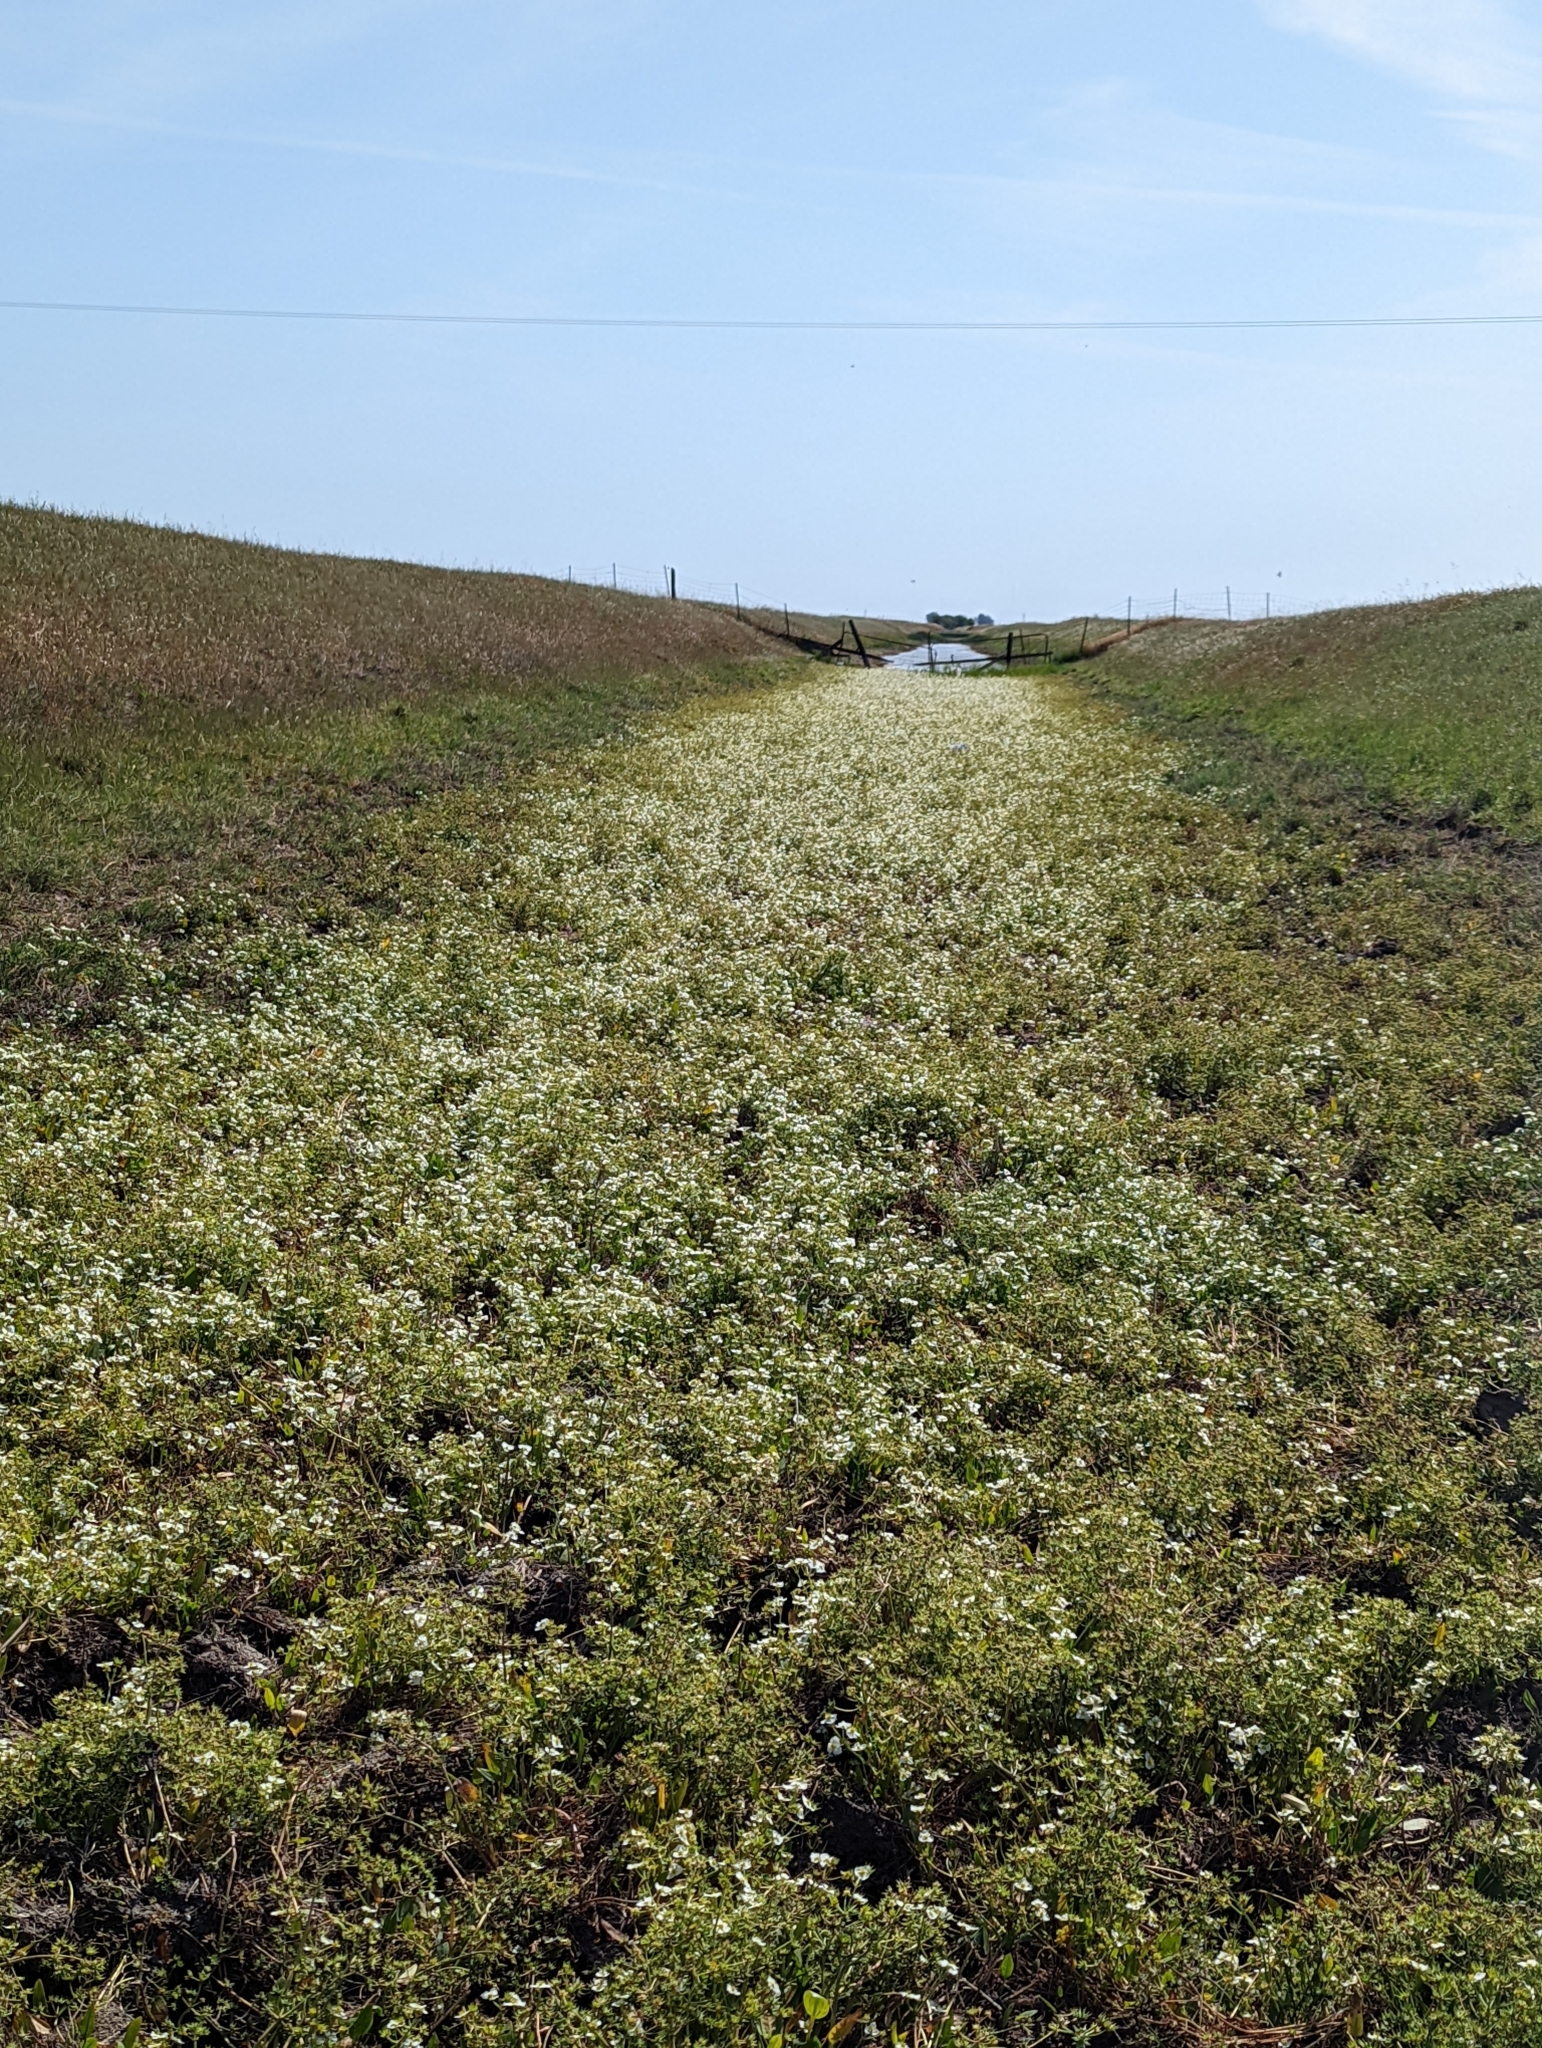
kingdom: Plantae
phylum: Tracheophyta
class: Liliopsida
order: Alismatales
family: Alismataceae
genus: Damasonium
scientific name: Damasonium californicum
